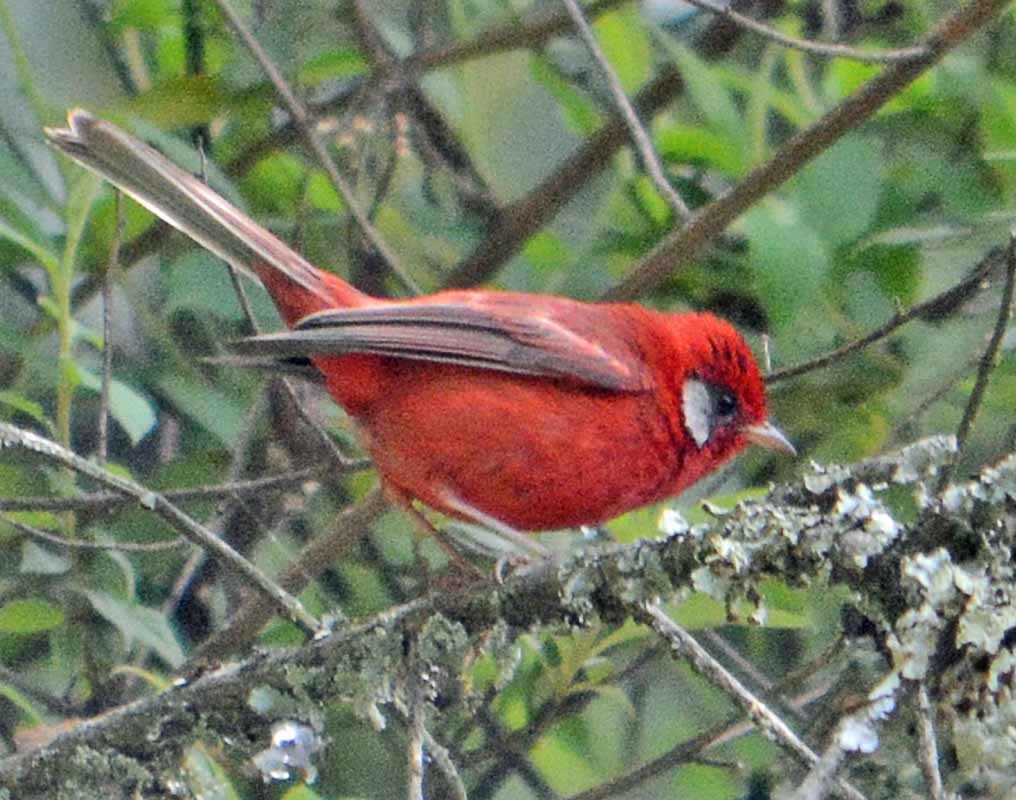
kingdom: Animalia
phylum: Chordata
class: Aves
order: Passeriformes
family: Parulidae
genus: Cardellina
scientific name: Cardellina rubra
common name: Red warbler
